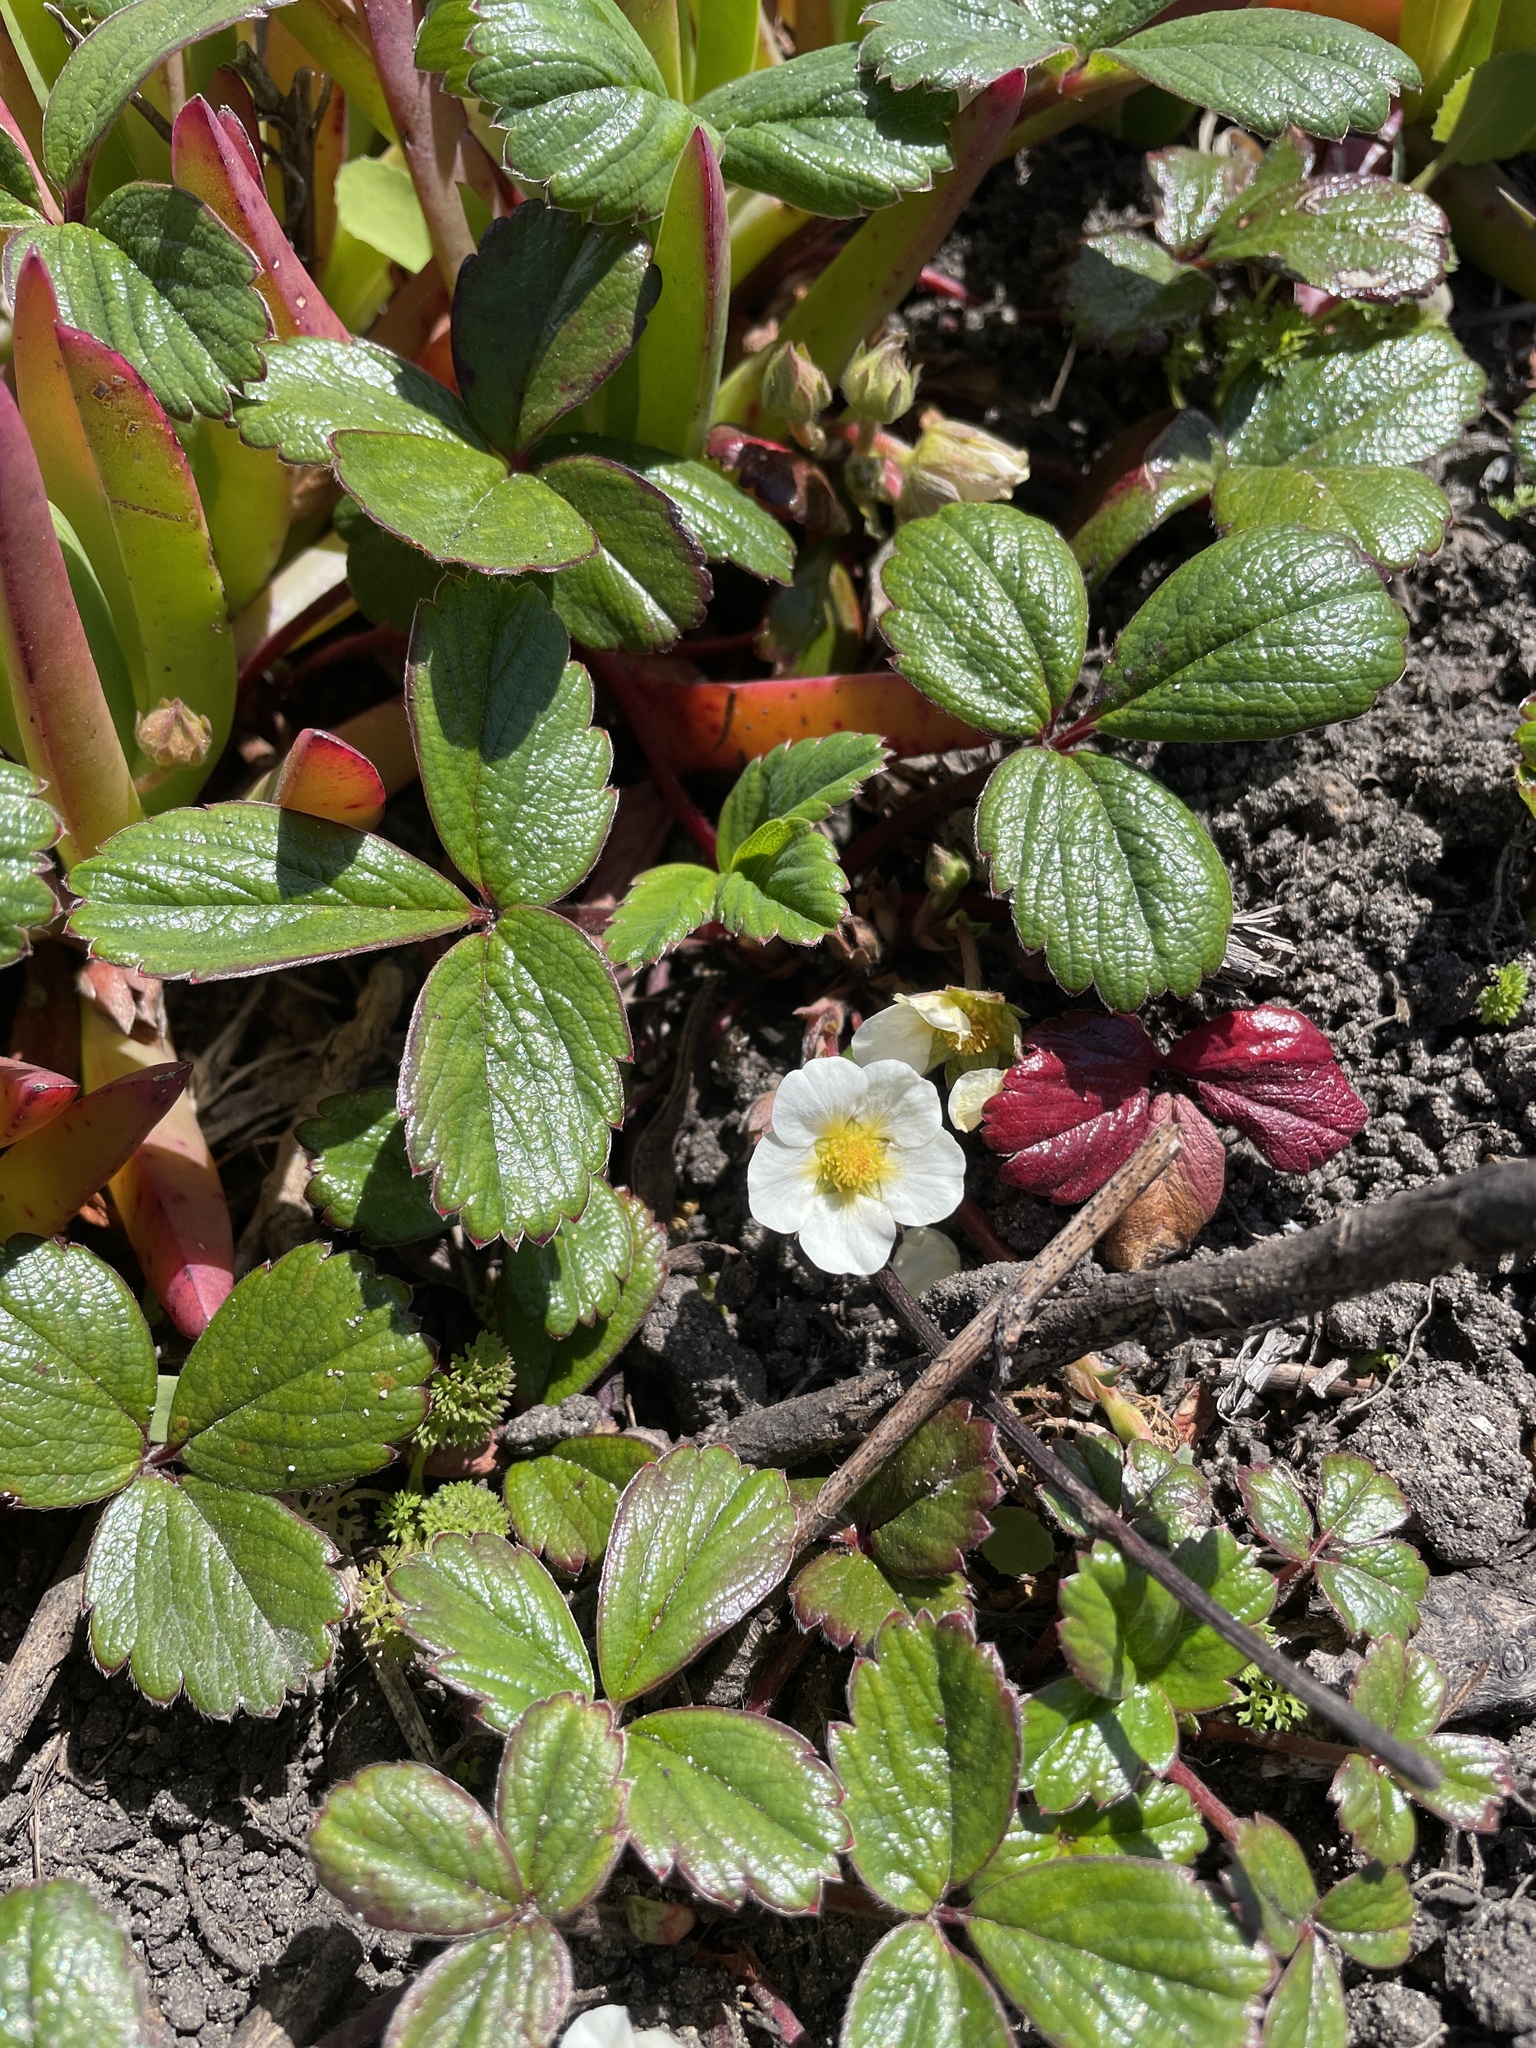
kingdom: Plantae
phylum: Tracheophyta
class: Magnoliopsida
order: Rosales
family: Rosaceae
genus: Fragaria
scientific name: Fragaria chiloensis
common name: Beach strawberry
